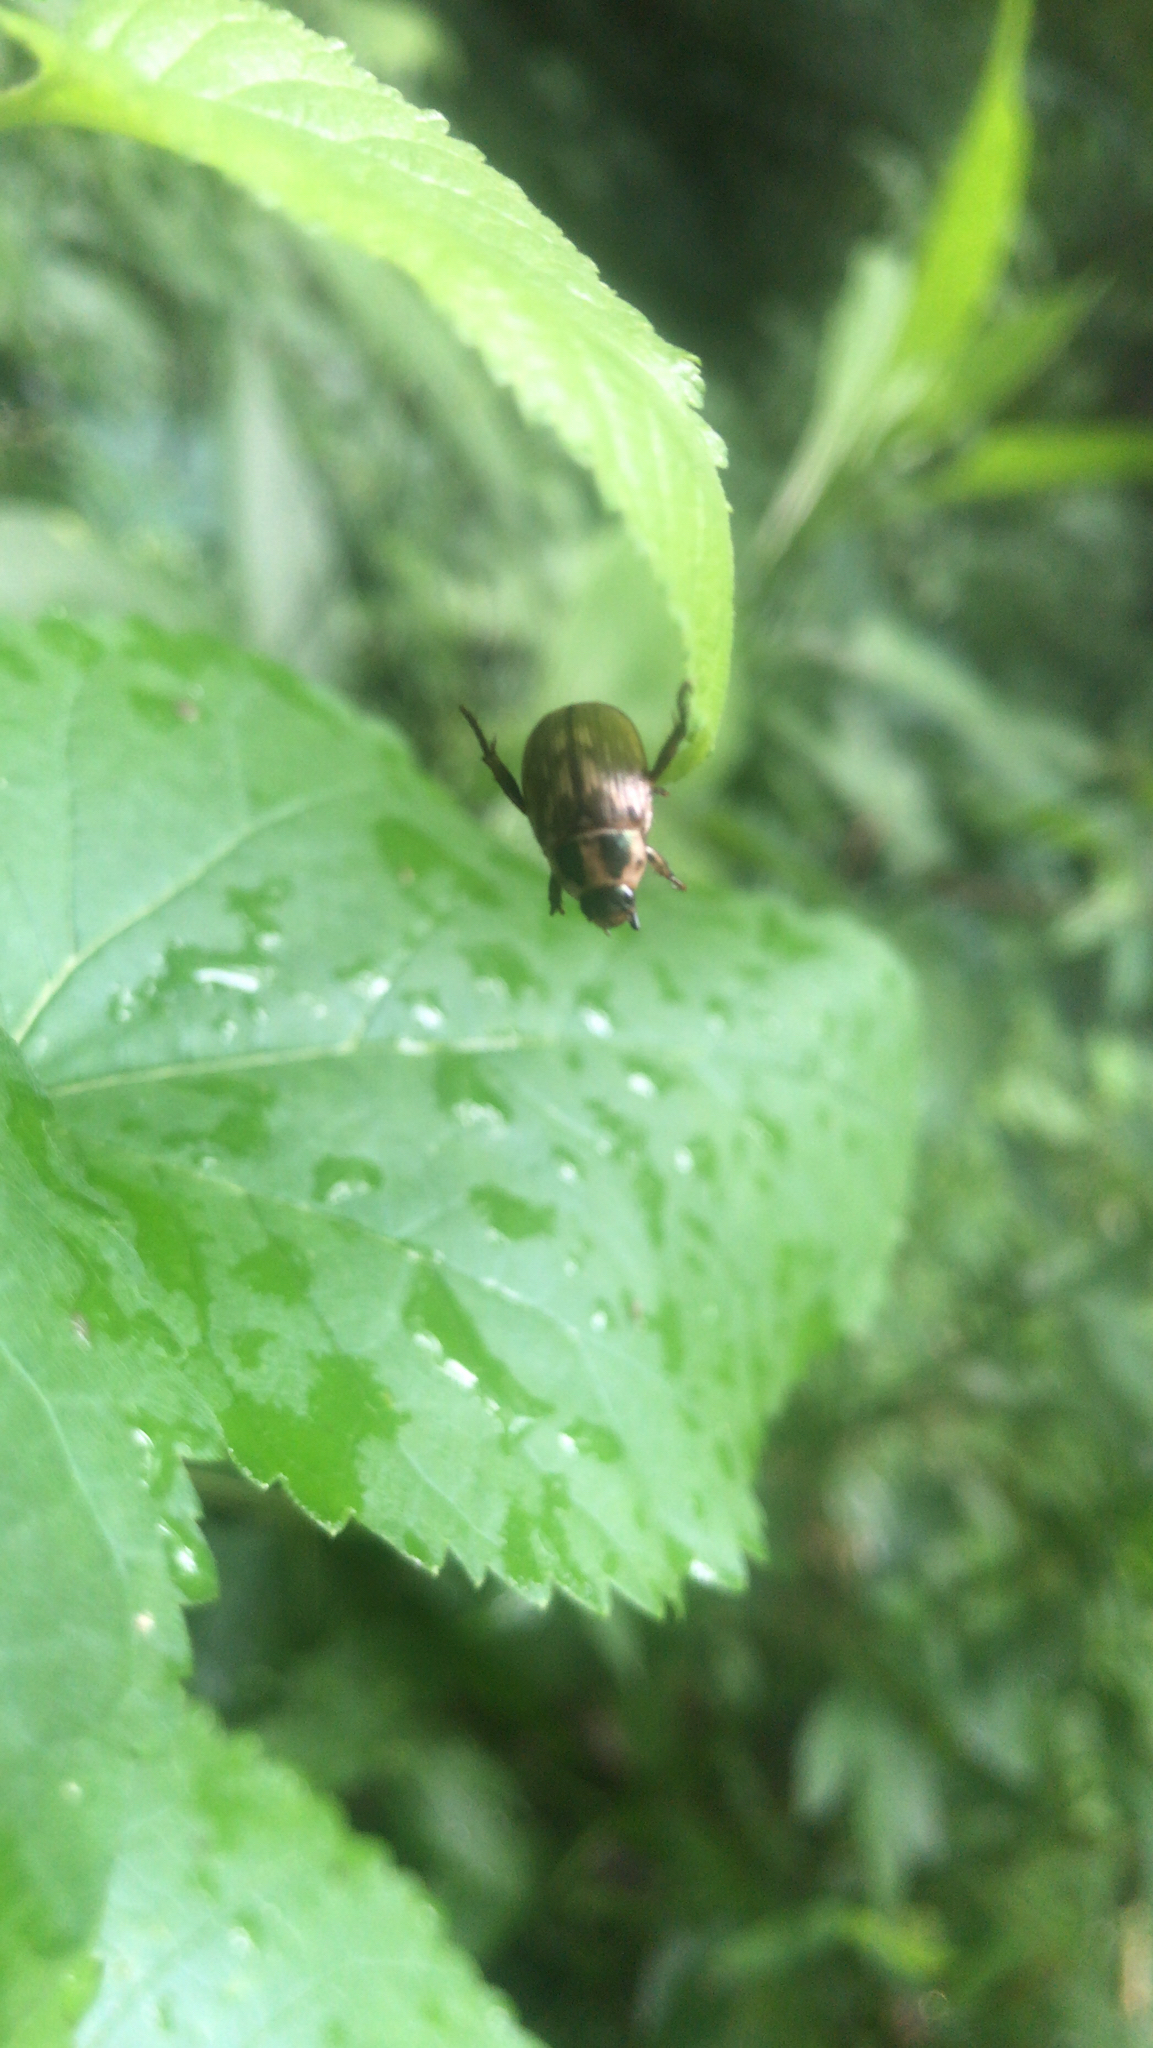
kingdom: Animalia
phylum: Arthropoda
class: Insecta
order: Coleoptera
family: Scarabaeidae
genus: Exomala
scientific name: Exomala orientalis
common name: Oriental beetle
